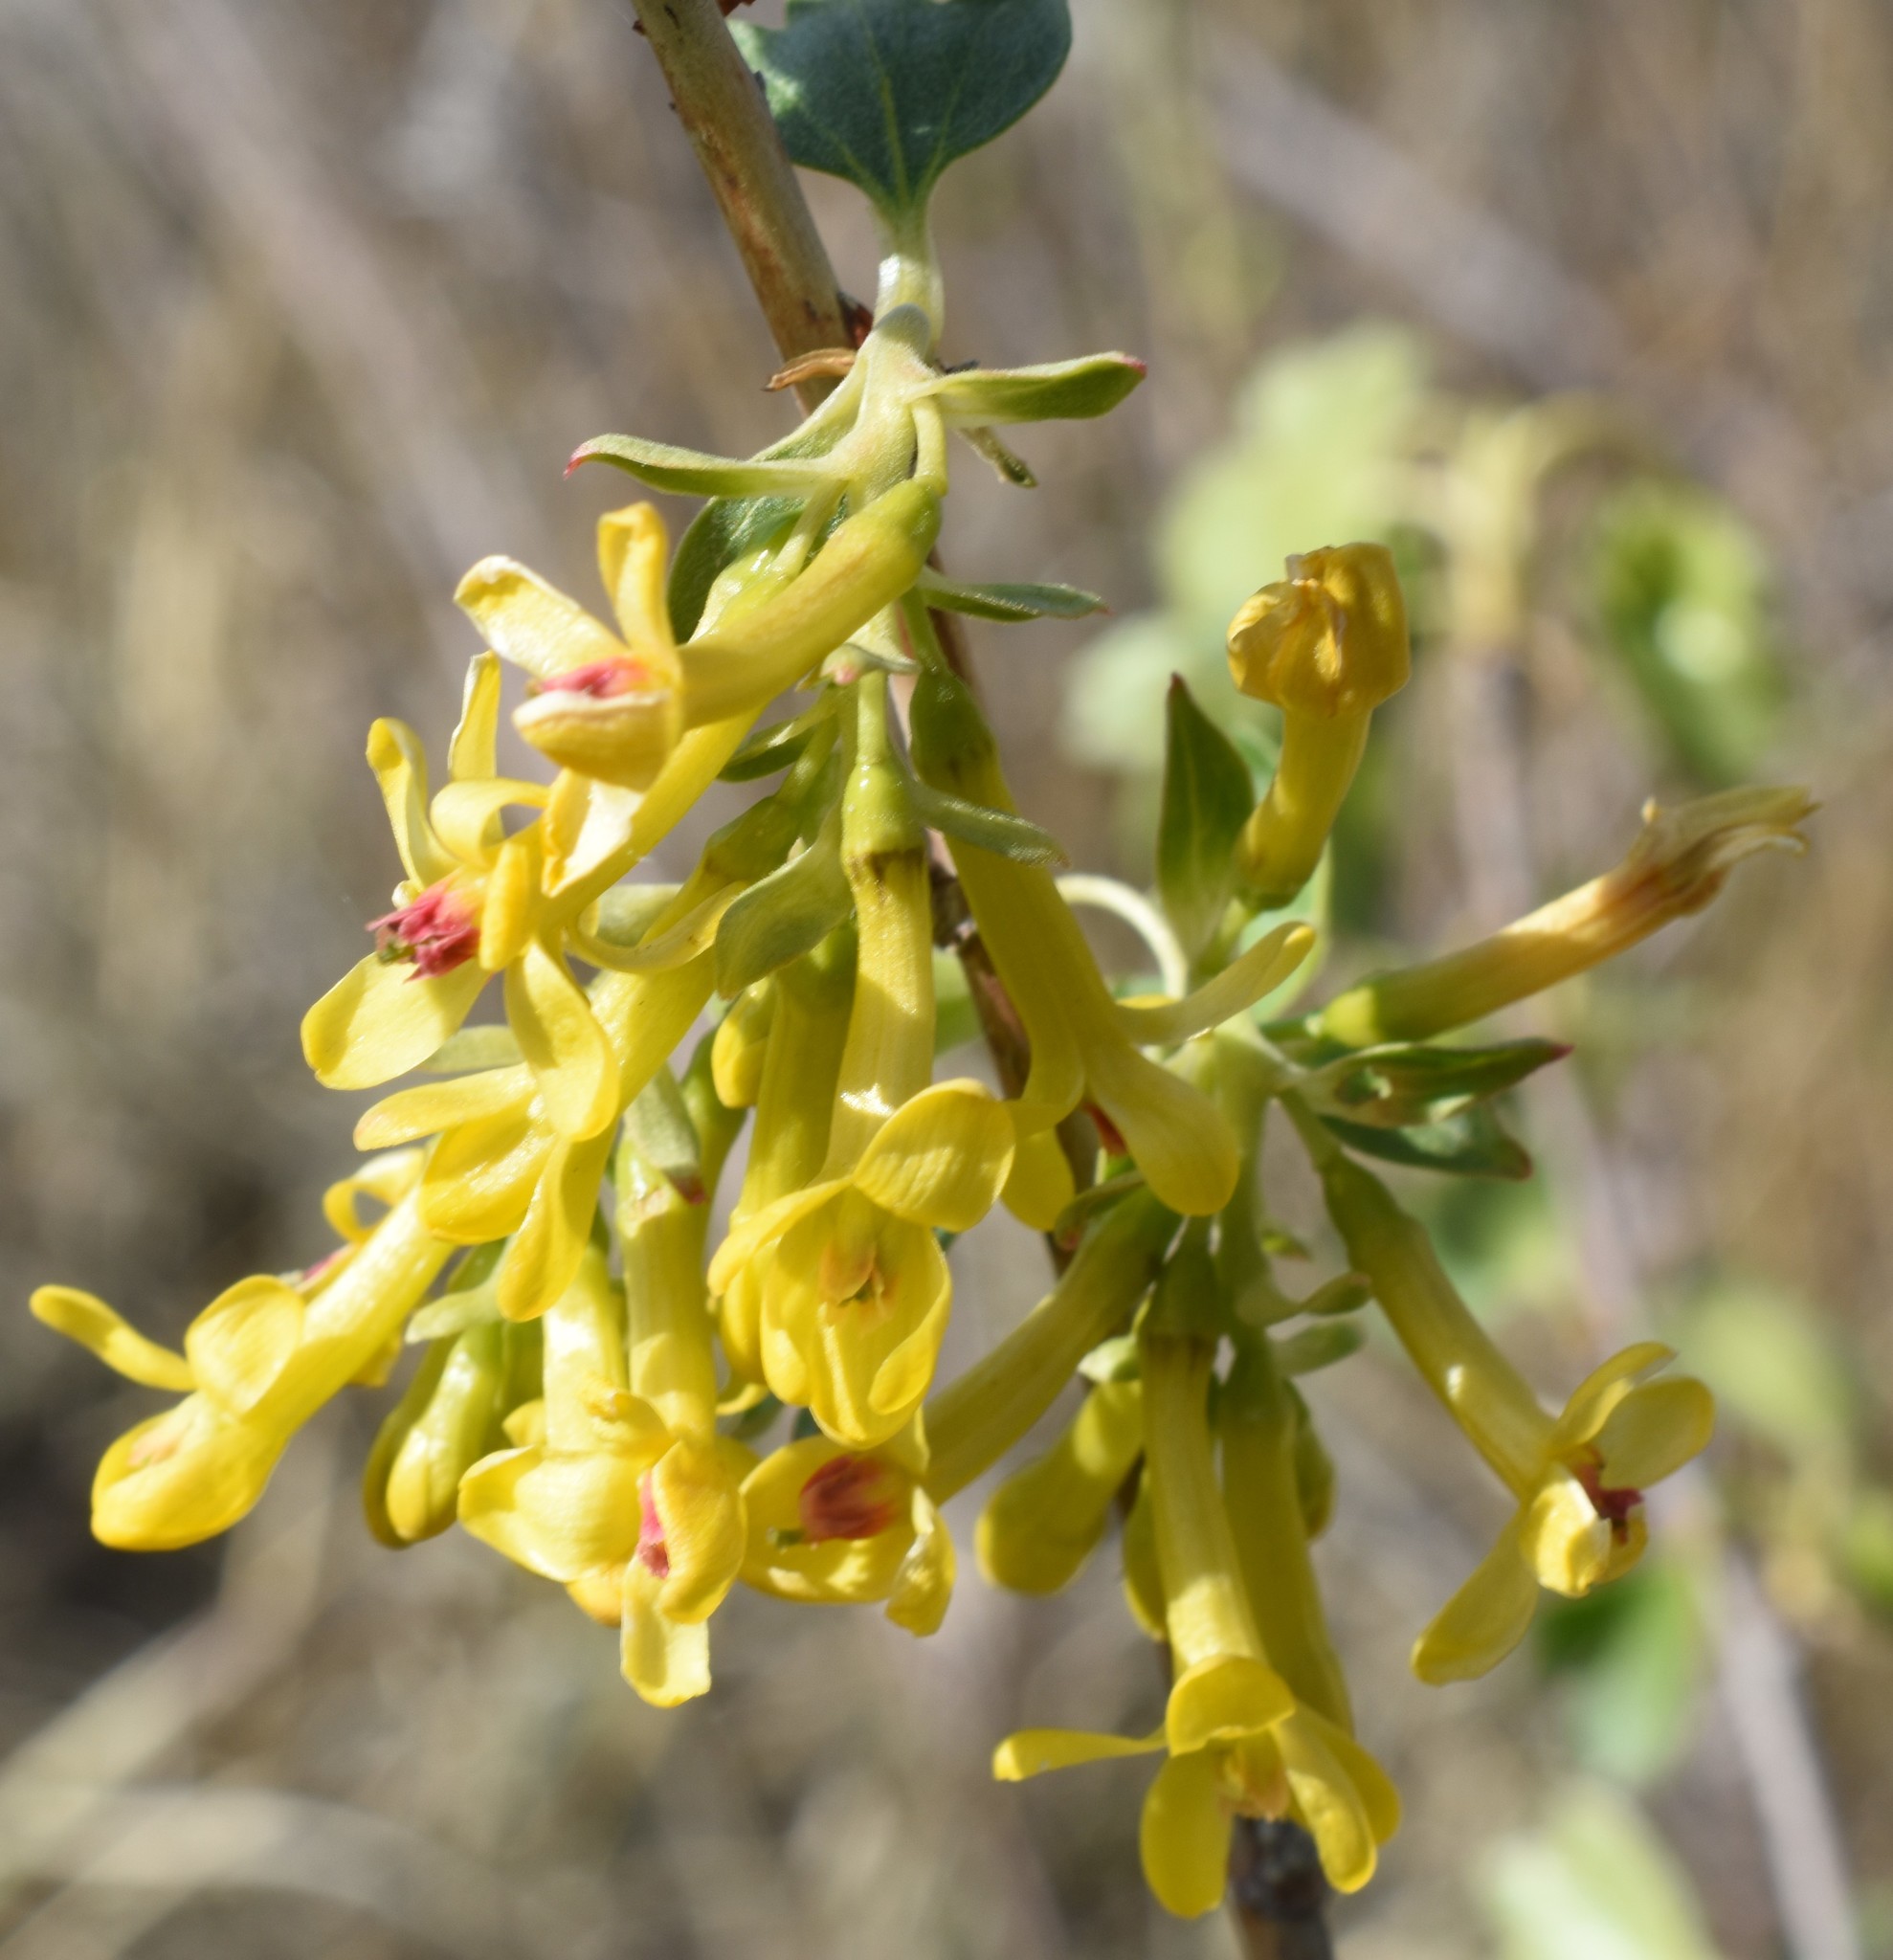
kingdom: Plantae
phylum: Tracheophyta
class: Magnoliopsida
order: Saxifragales
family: Grossulariaceae
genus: Ribes
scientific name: Ribes aureum
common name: Golden currant
